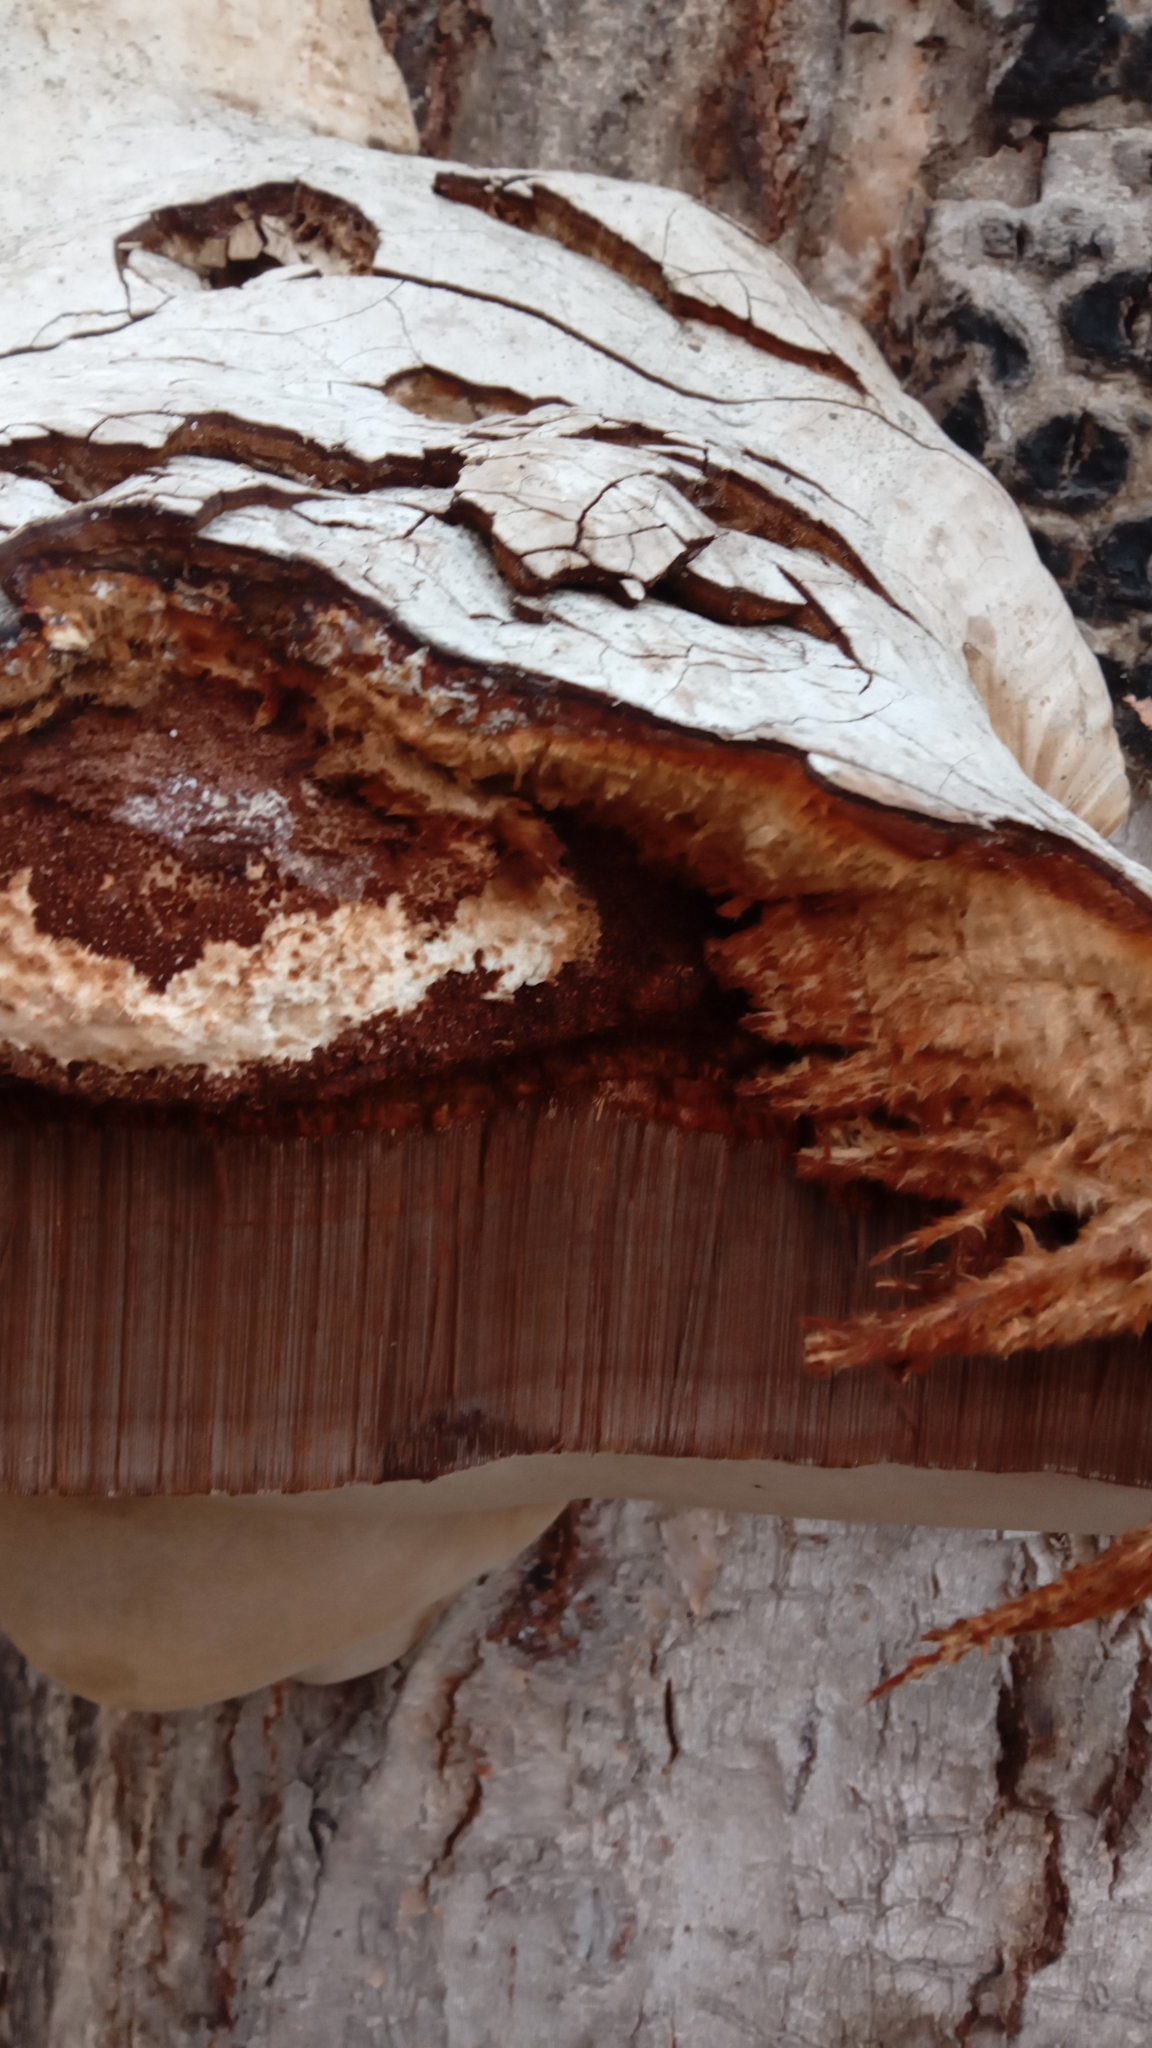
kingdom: Fungi
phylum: Basidiomycota
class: Agaricomycetes
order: Polyporales
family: Polyporaceae
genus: Fomes
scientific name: Fomes fomentarius
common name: Hoof fungus
